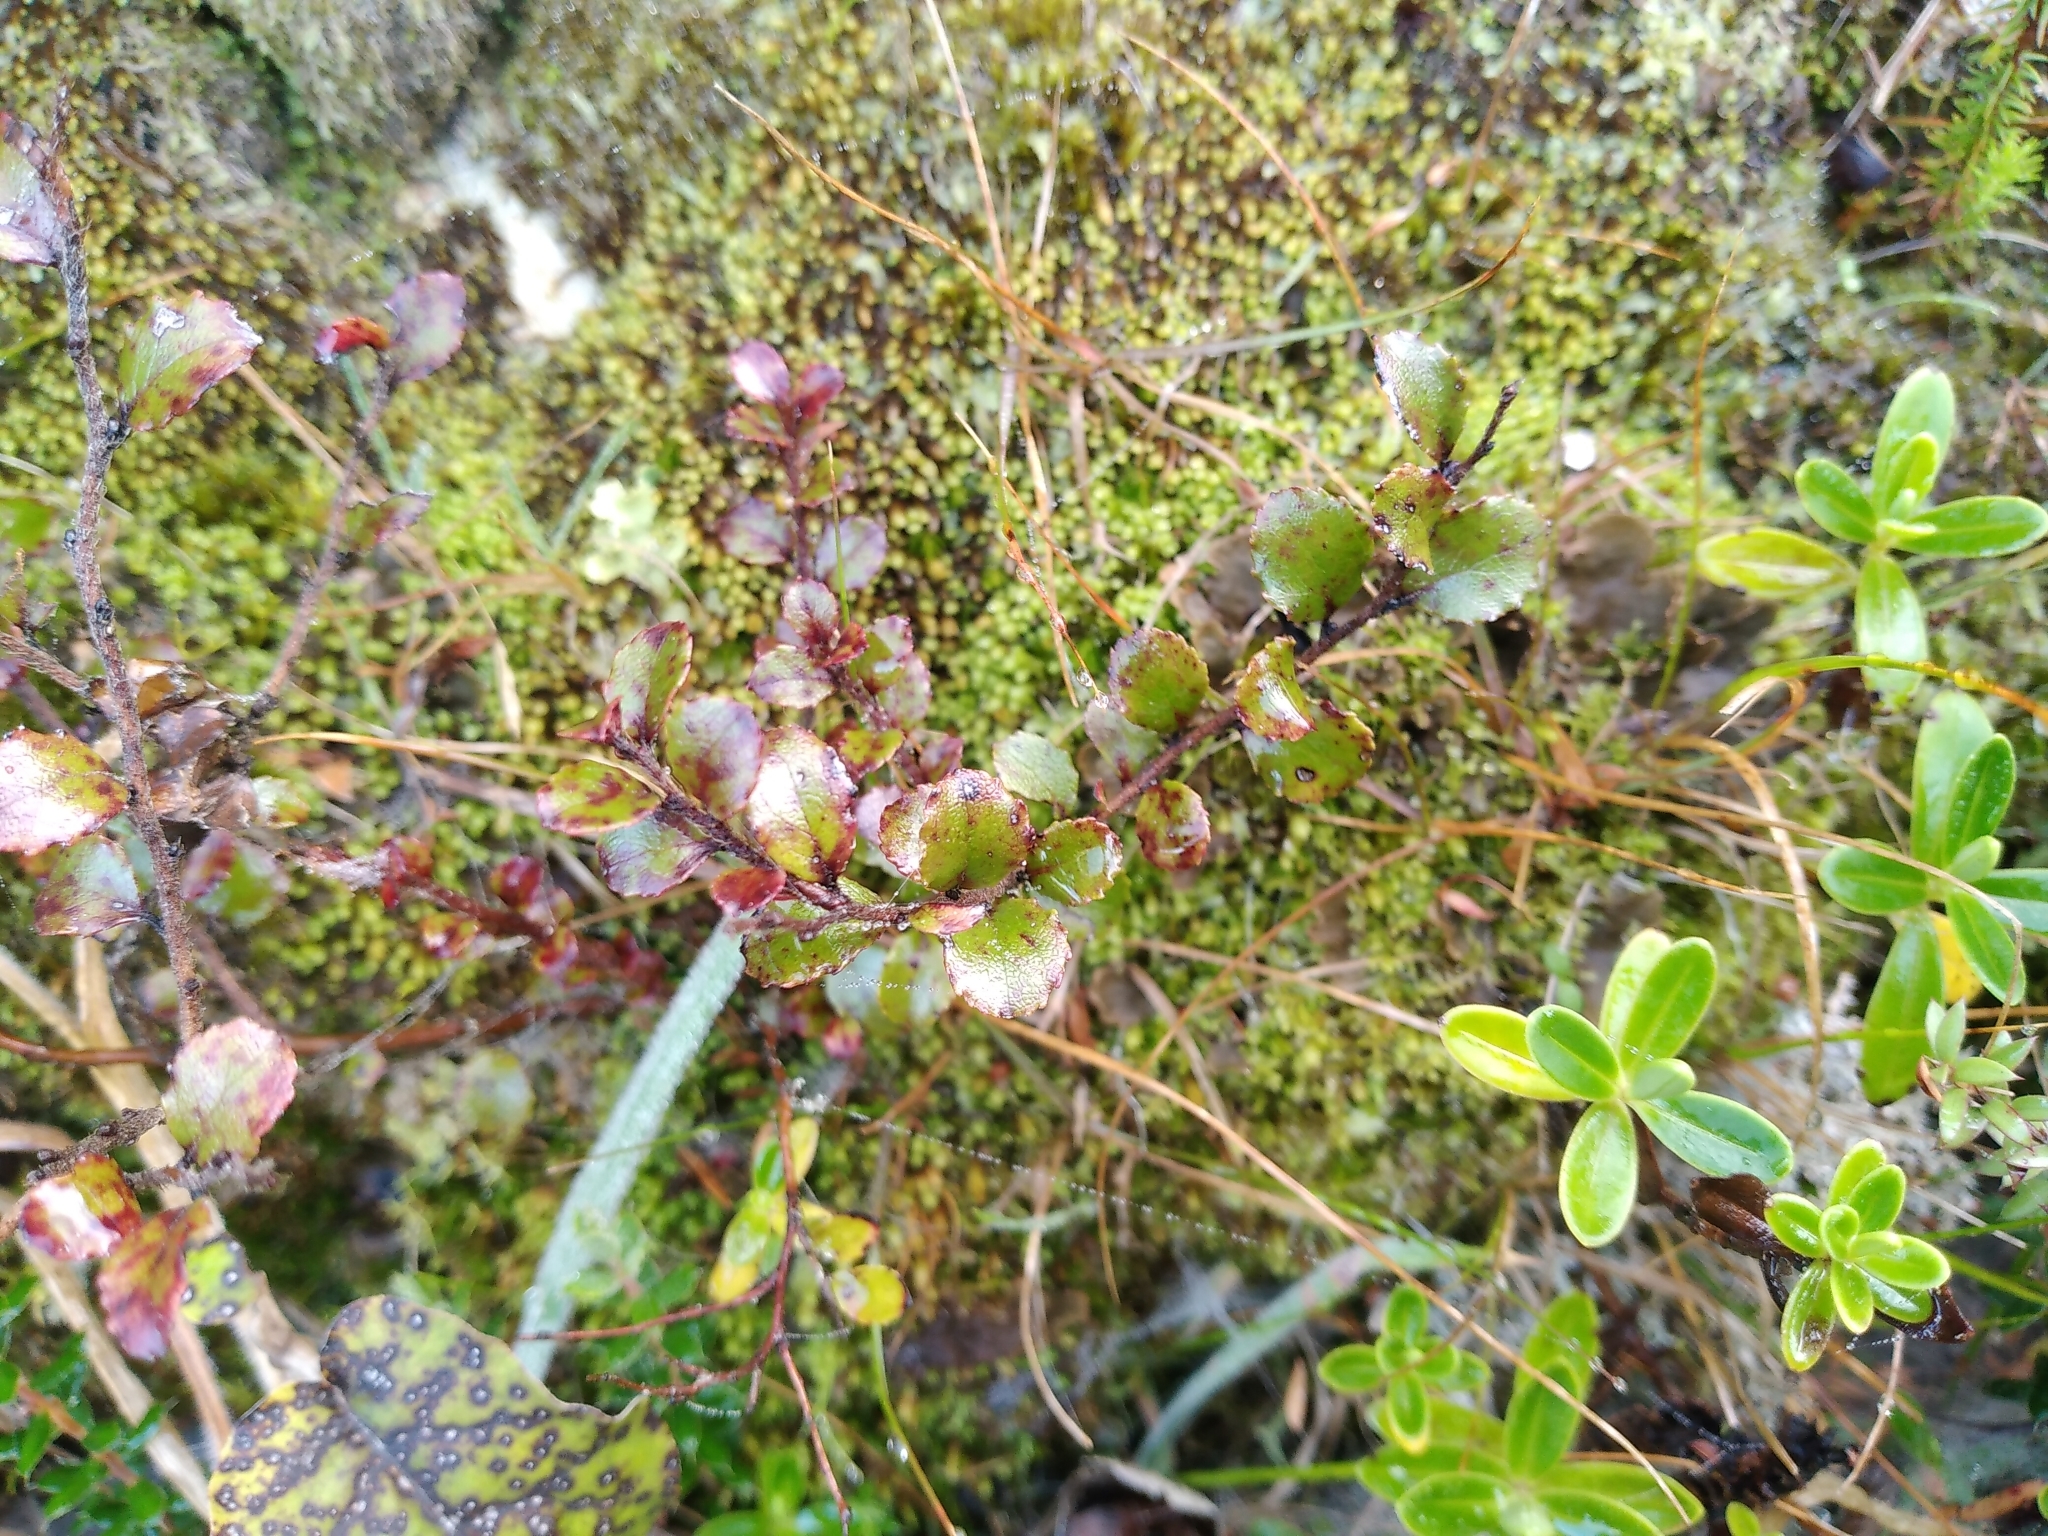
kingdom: Plantae
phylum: Tracheophyta
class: Magnoliopsida
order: Ericales
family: Ericaceae
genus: Gaultheria
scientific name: Gaultheria antipoda
